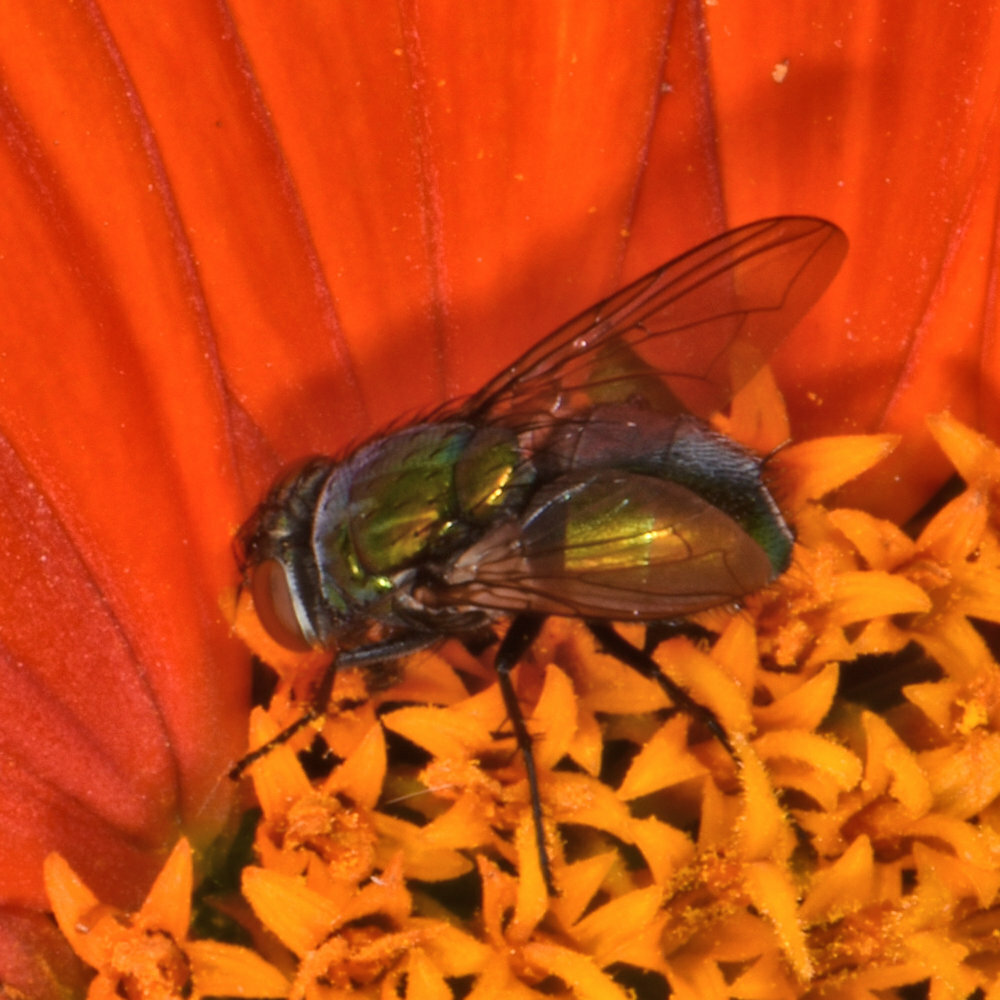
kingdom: Animalia
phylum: Arthropoda
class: Insecta
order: Diptera
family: Calliphoridae
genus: Lucilia
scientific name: Lucilia sericata
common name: Blow fly
